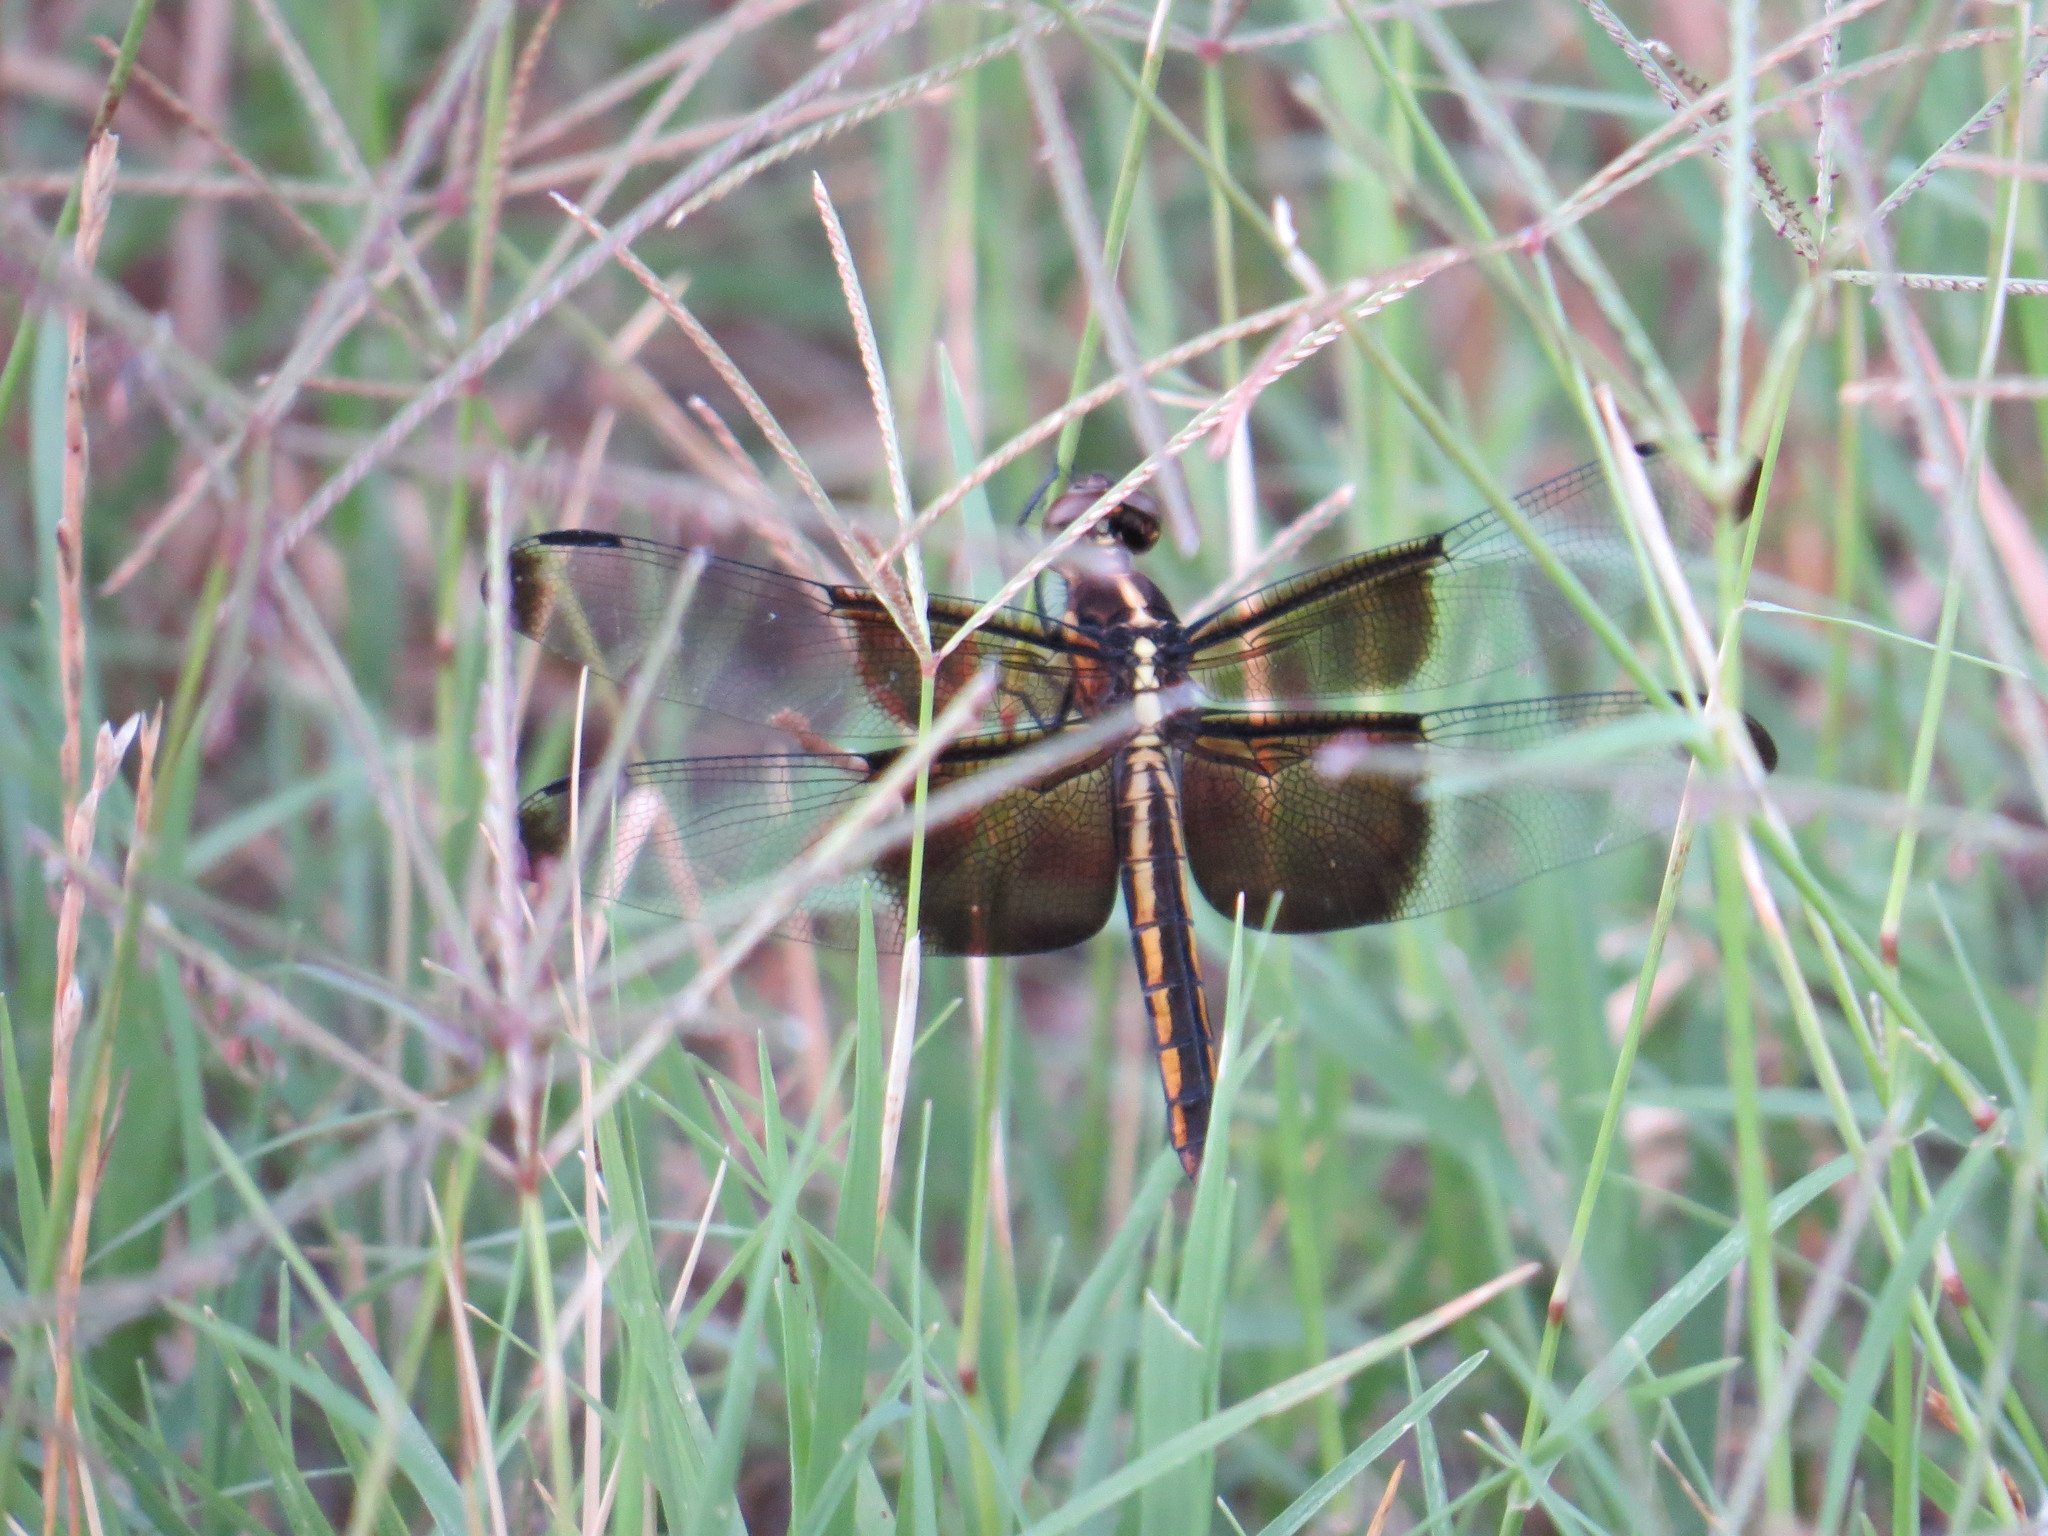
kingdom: Animalia
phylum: Arthropoda
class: Insecta
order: Odonata
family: Libellulidae
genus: Libellula
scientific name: Libellula luctuosa
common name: Widow skimmer
